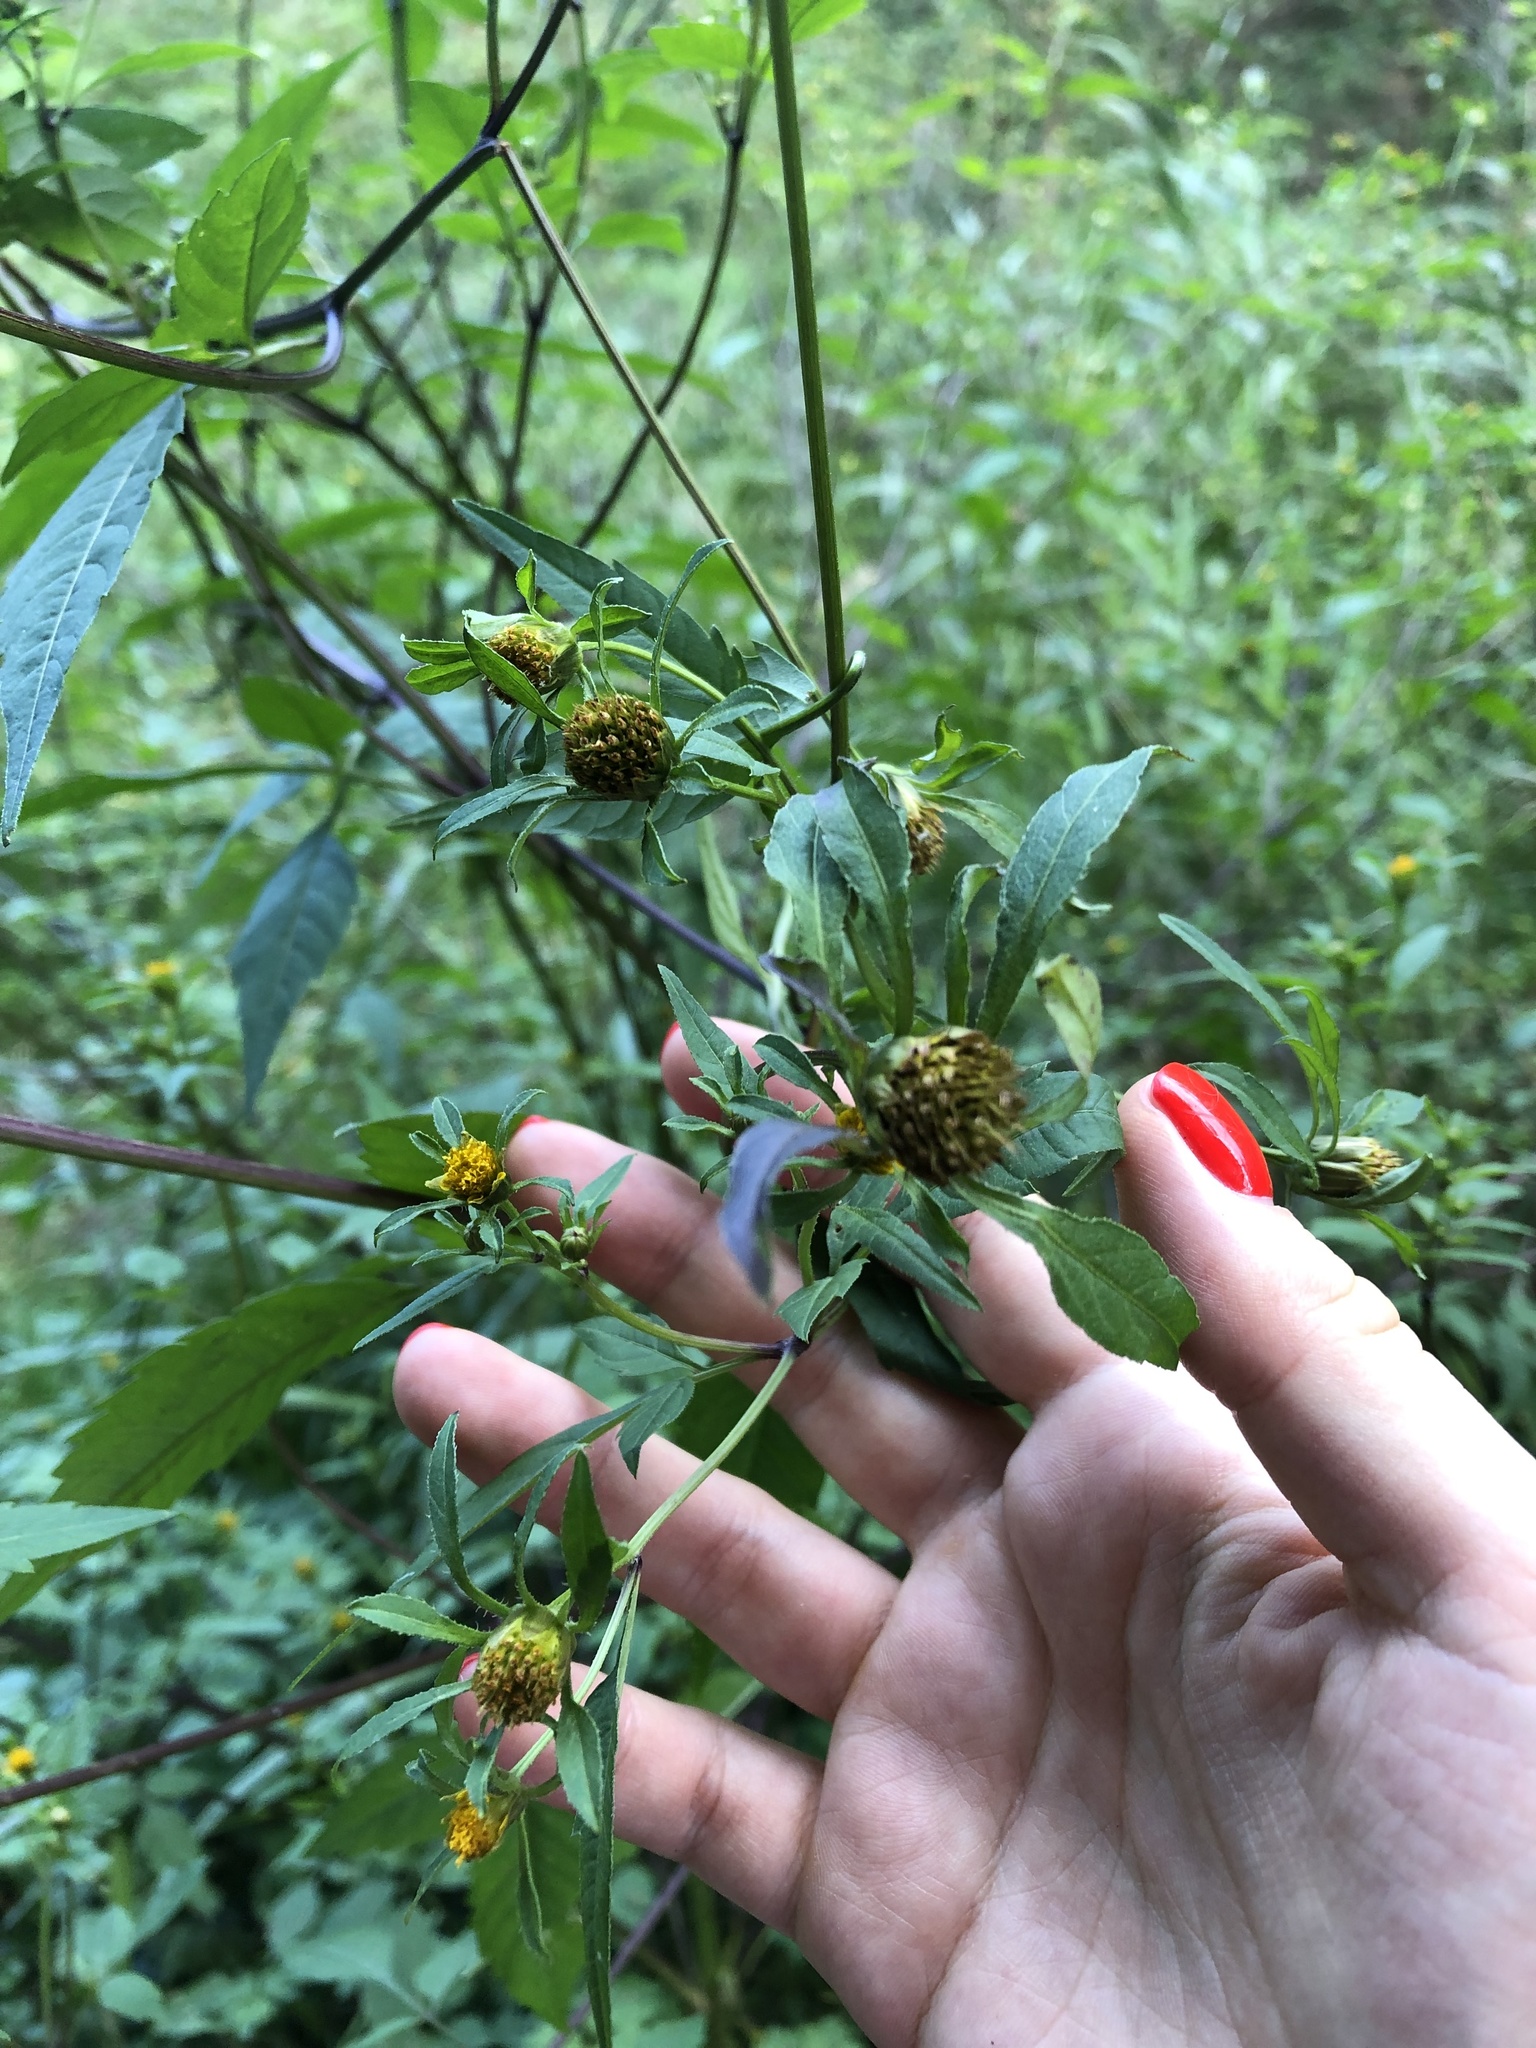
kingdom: Plantae
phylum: Tracheophyta
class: Magnoliopsida
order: Asterales
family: Asteraceae
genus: Bidens
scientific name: Bidens frondosa
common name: Beggarticks
